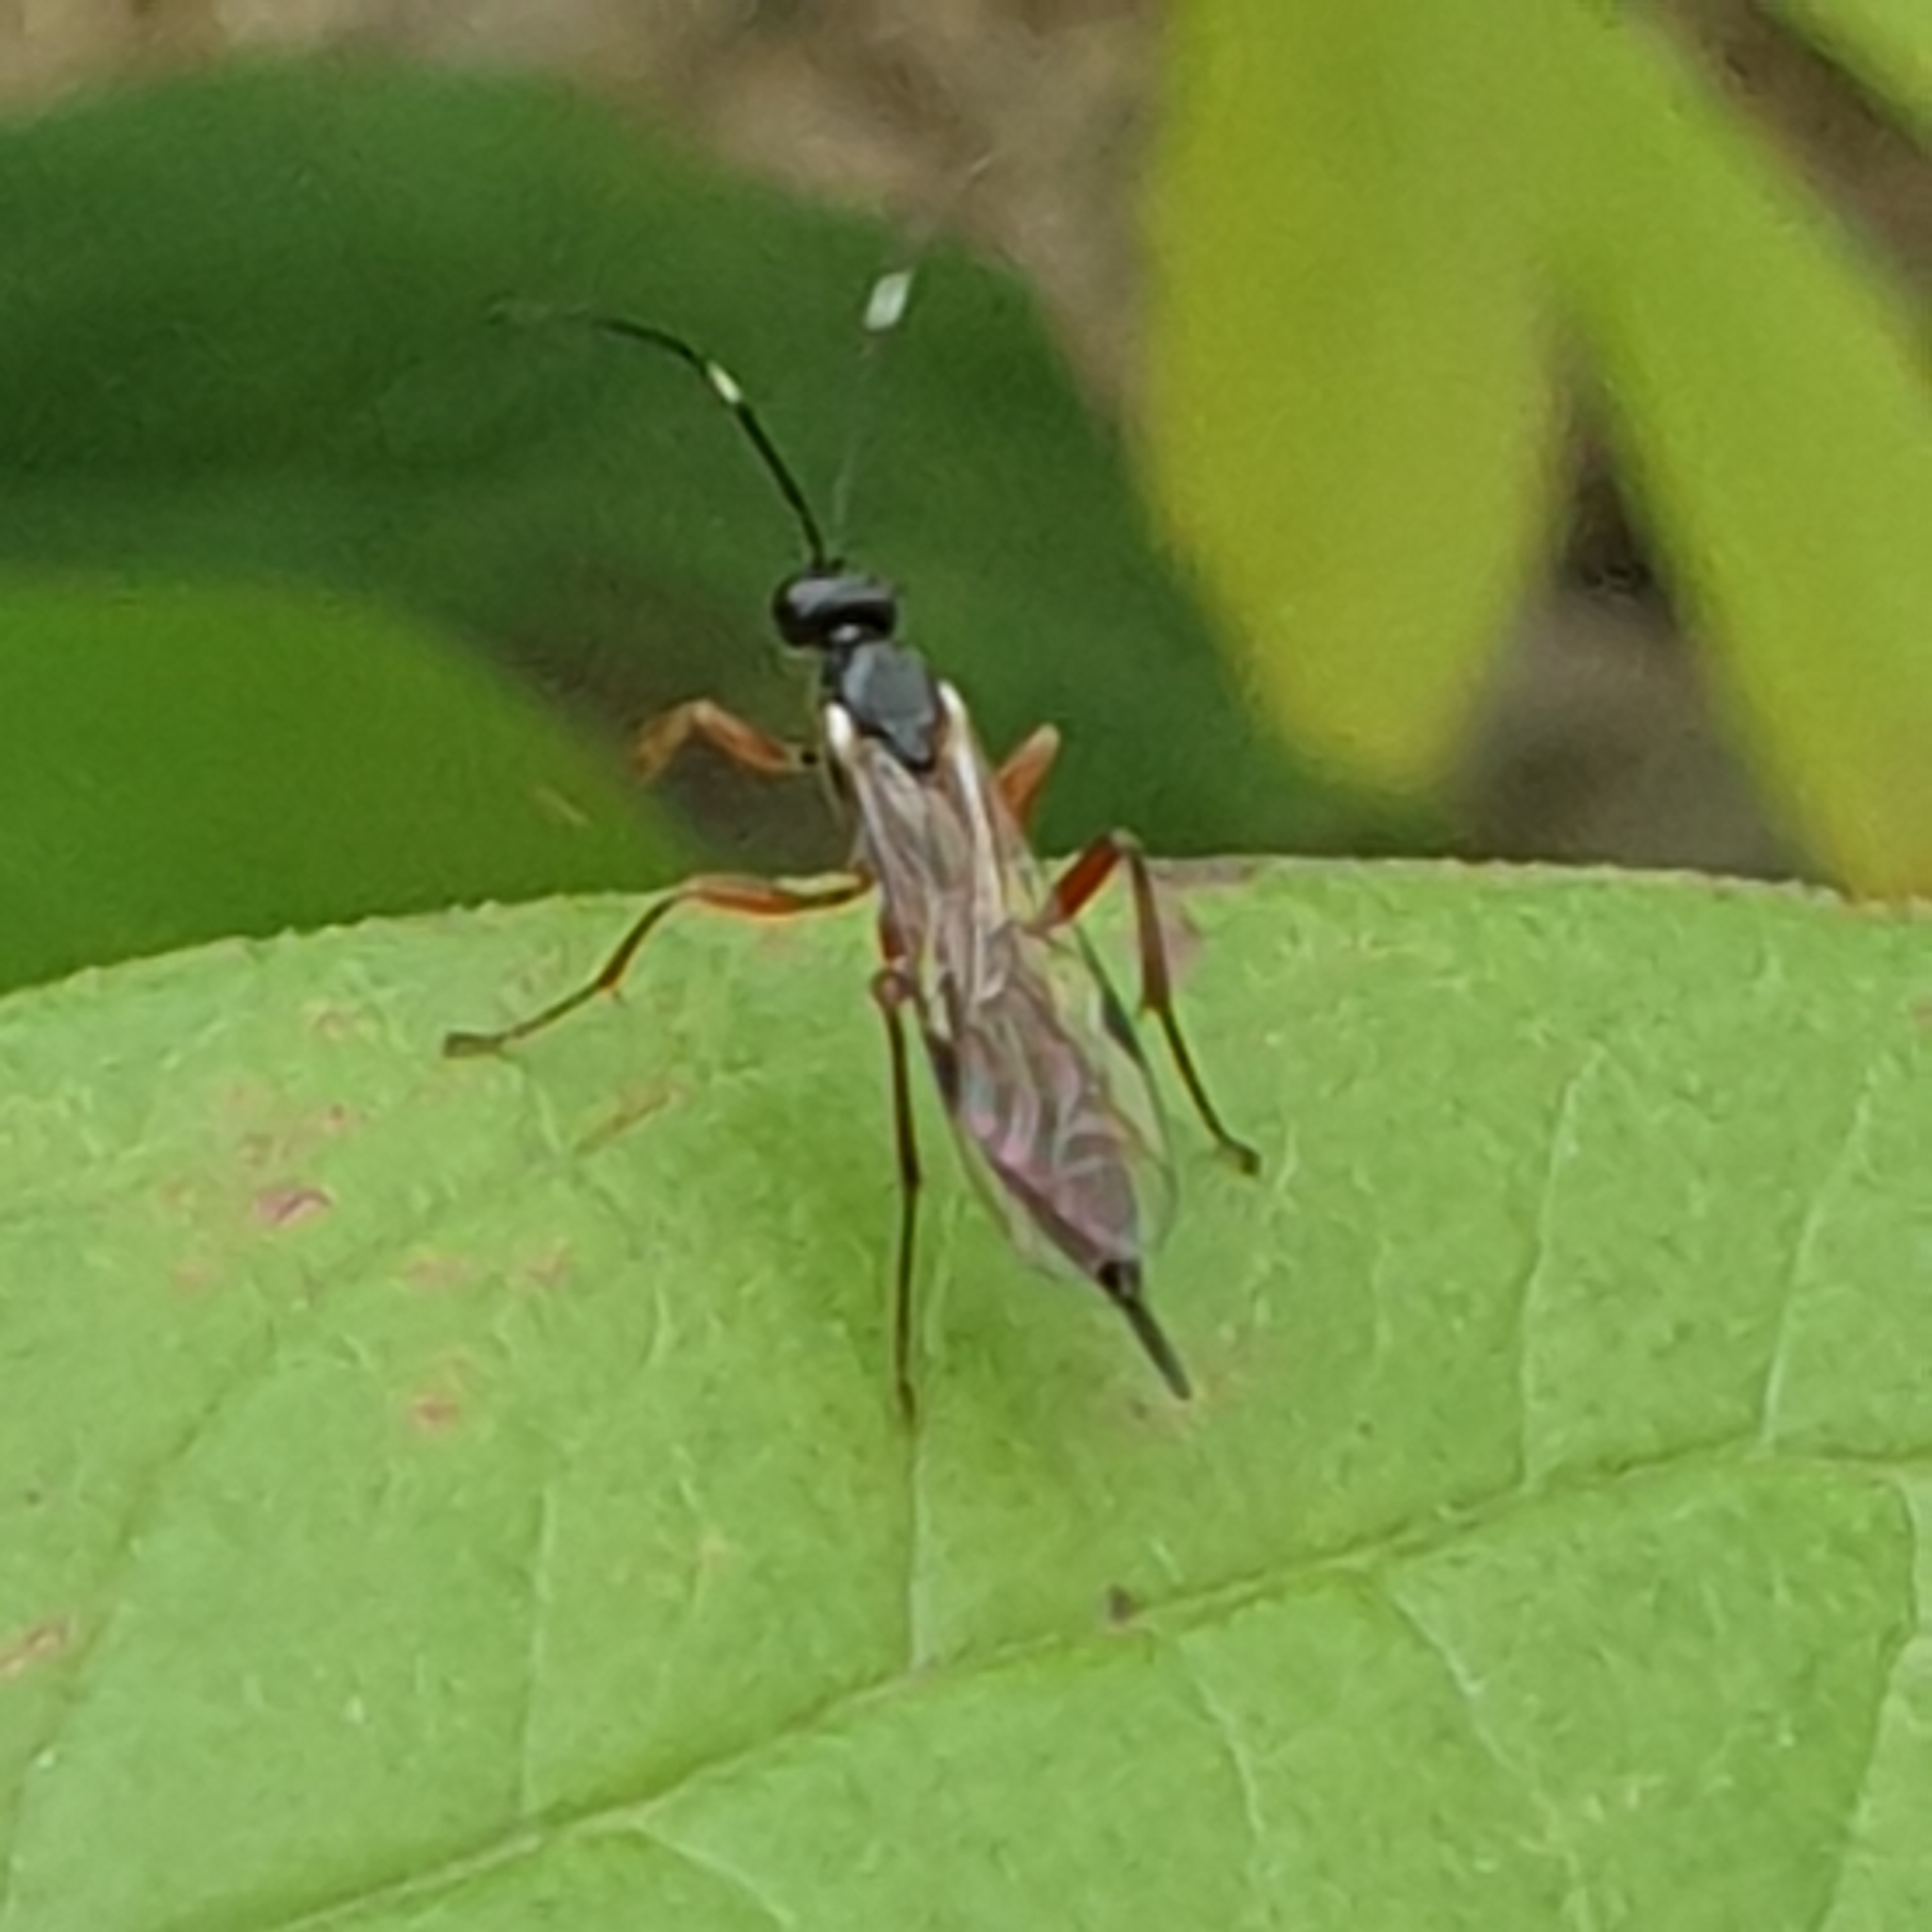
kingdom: Animalia
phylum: Arthropoda
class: Insecta
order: Hymenoptera
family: Ichneumonidae
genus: Helcostizus
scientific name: Helcostizus restaurator
